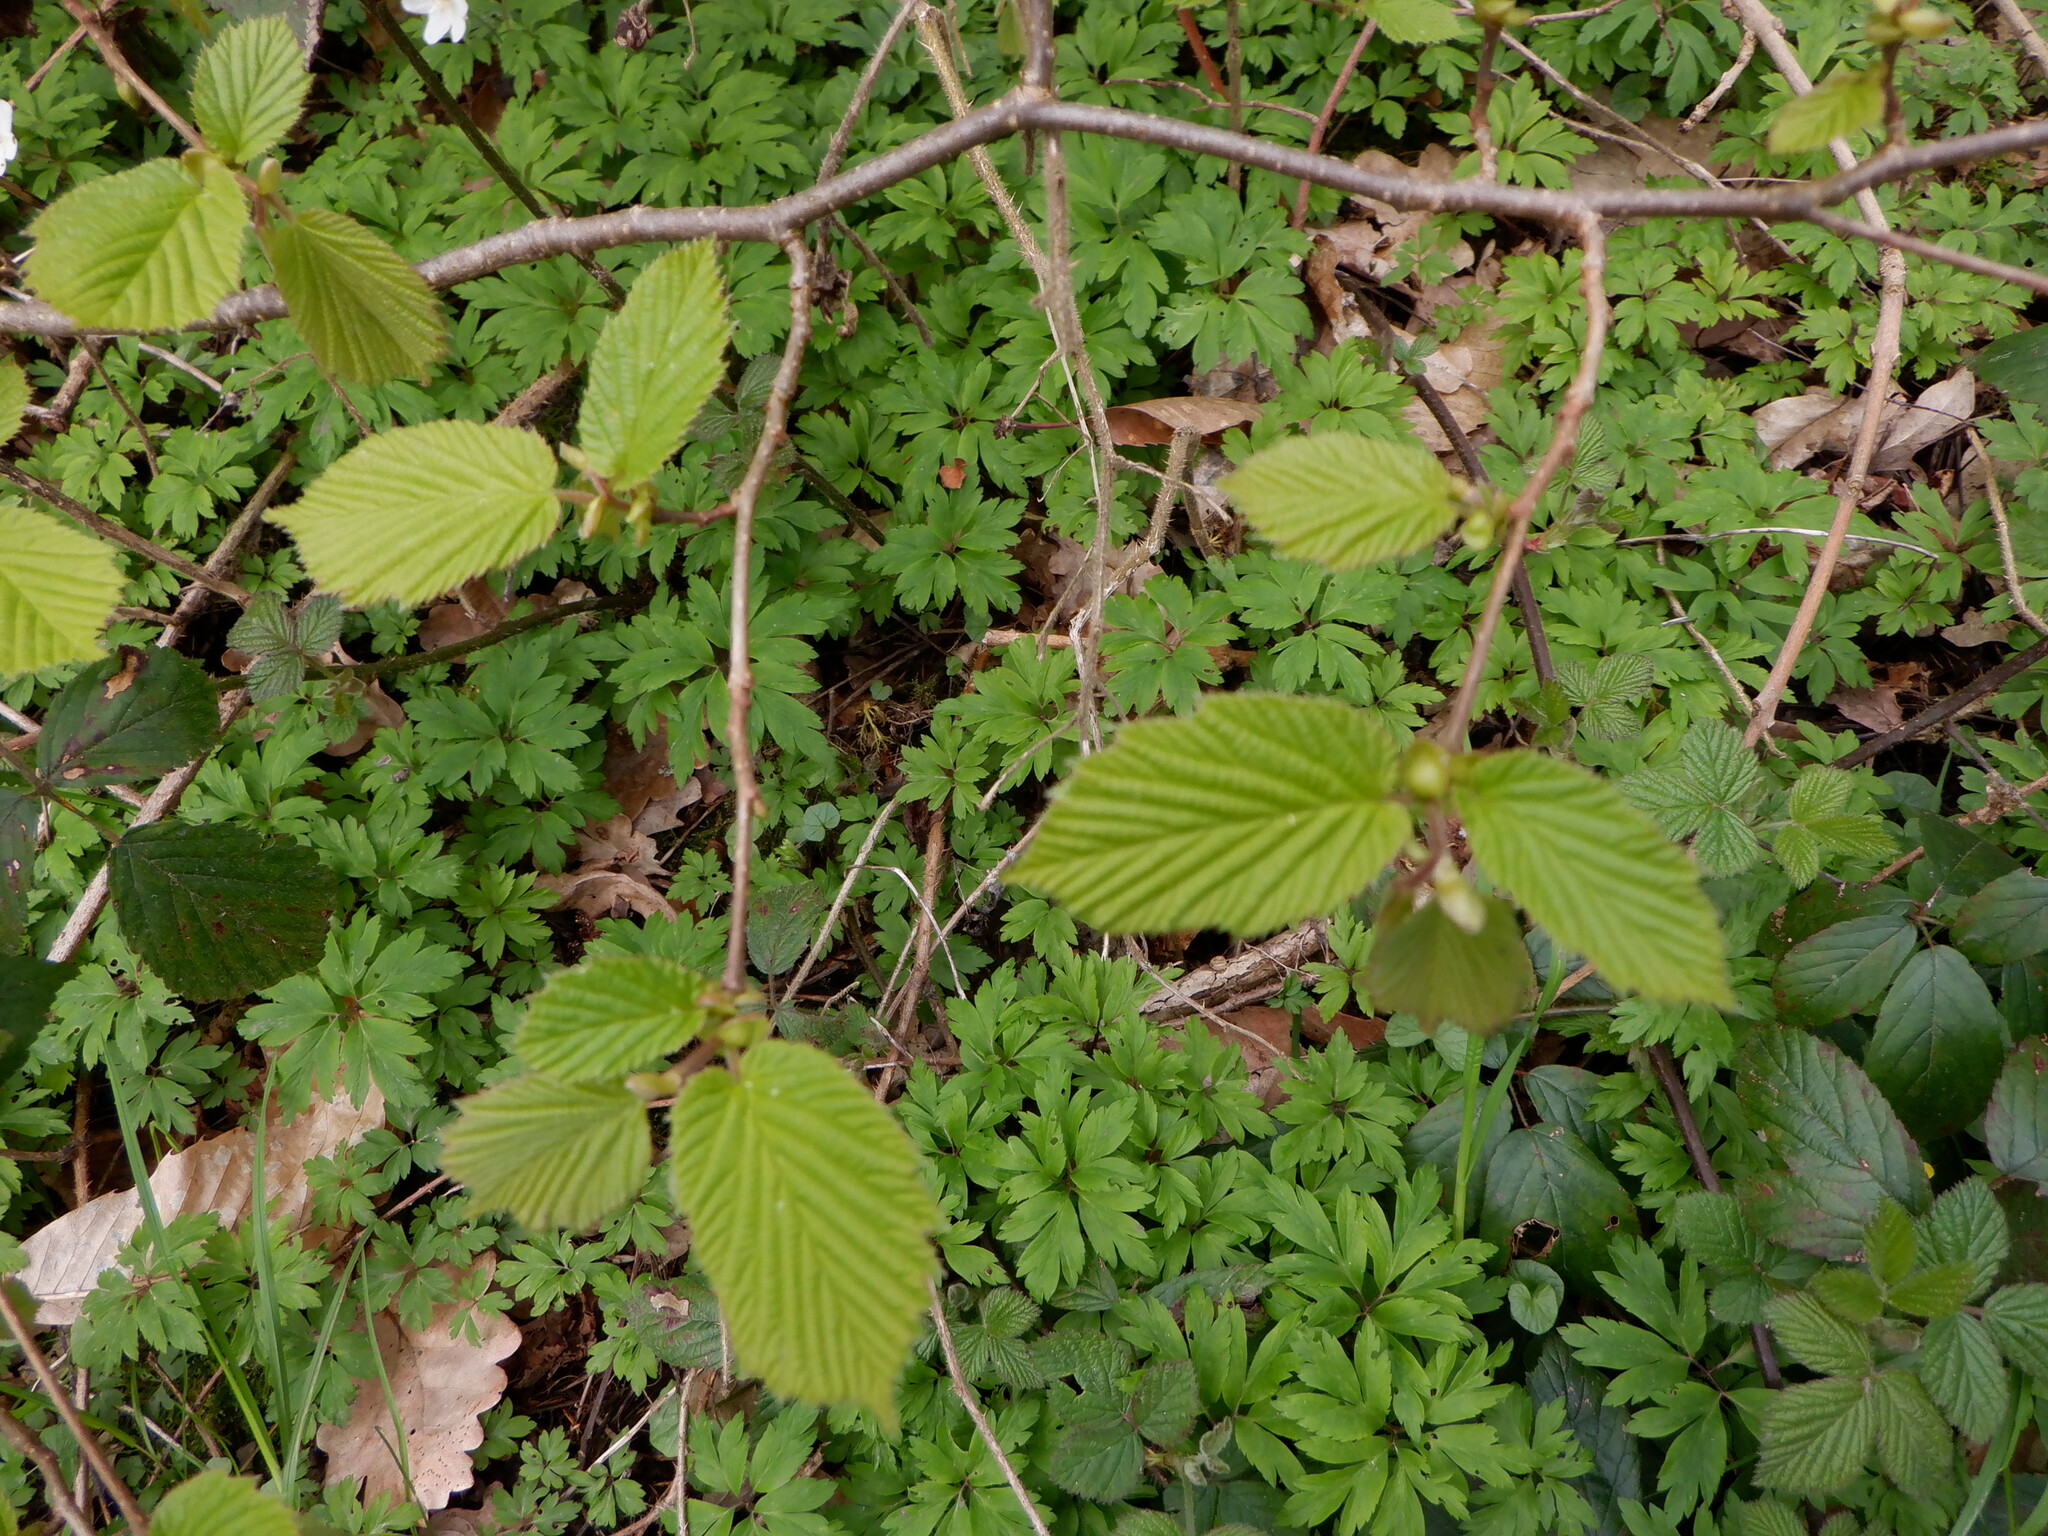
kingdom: Plantae
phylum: Tracheophyta
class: Magnoliopsida
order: Fagales
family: Betulaceae
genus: Corylus
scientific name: Corylus avellana
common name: European hazel
